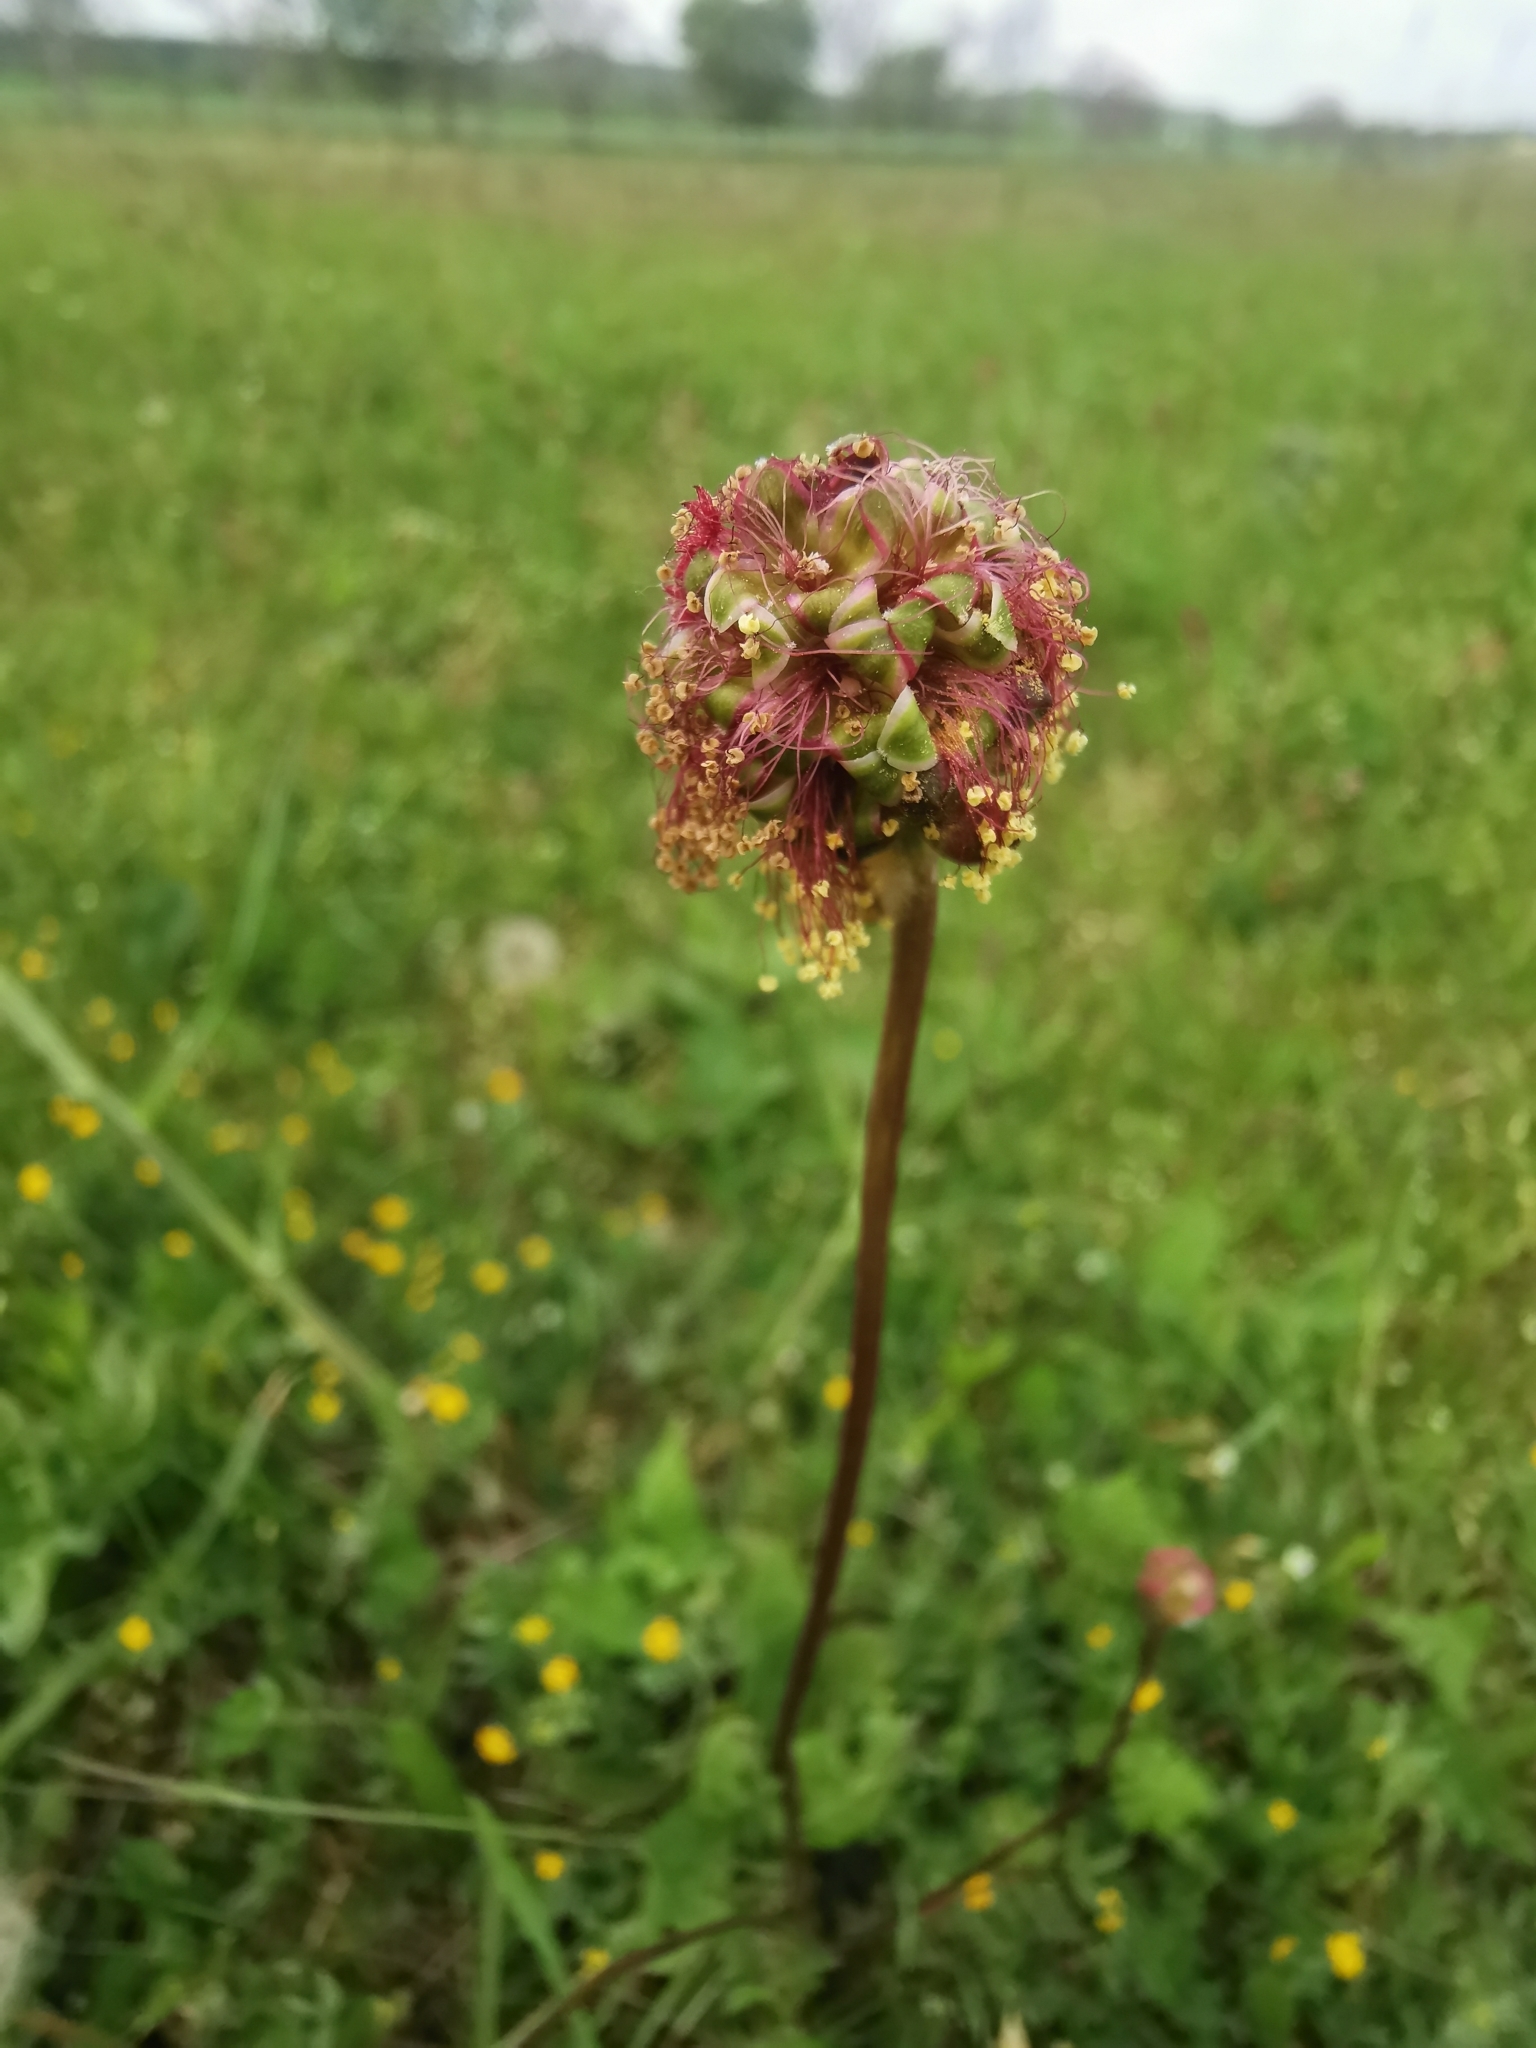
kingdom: Plantae
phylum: Tracheophyta
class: Magnoliopsida
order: Rosales
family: Rosaceae
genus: Poterium
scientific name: Poterium sanguisorba
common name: Salad burnet
